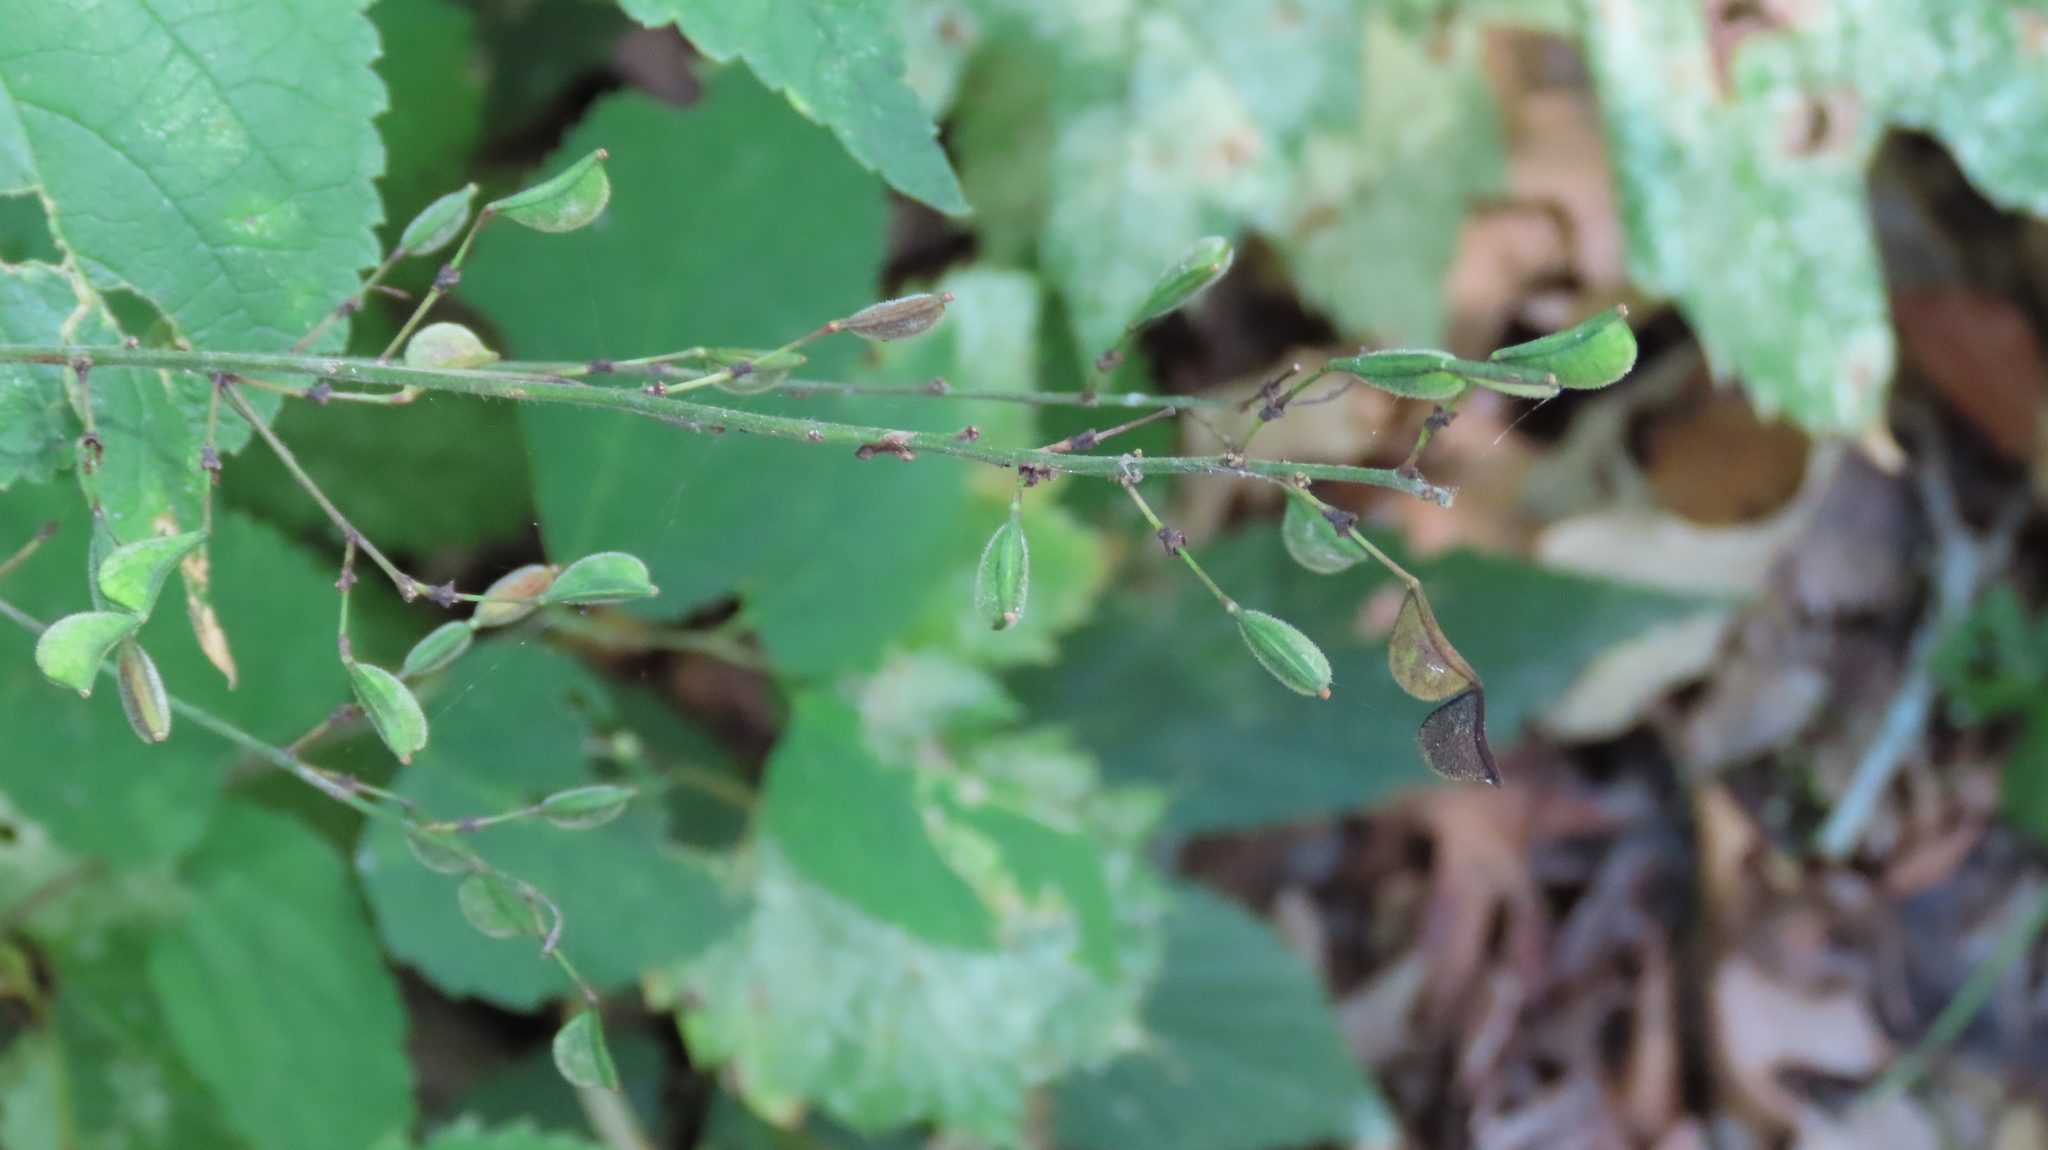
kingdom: Plantae
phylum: Tracheophyta
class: Magnoliopsida
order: Fabales
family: Fabaceae
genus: Hylodesmum
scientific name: Hylodesmum glutinosum
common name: Clustered-leaved tick-trefoil
